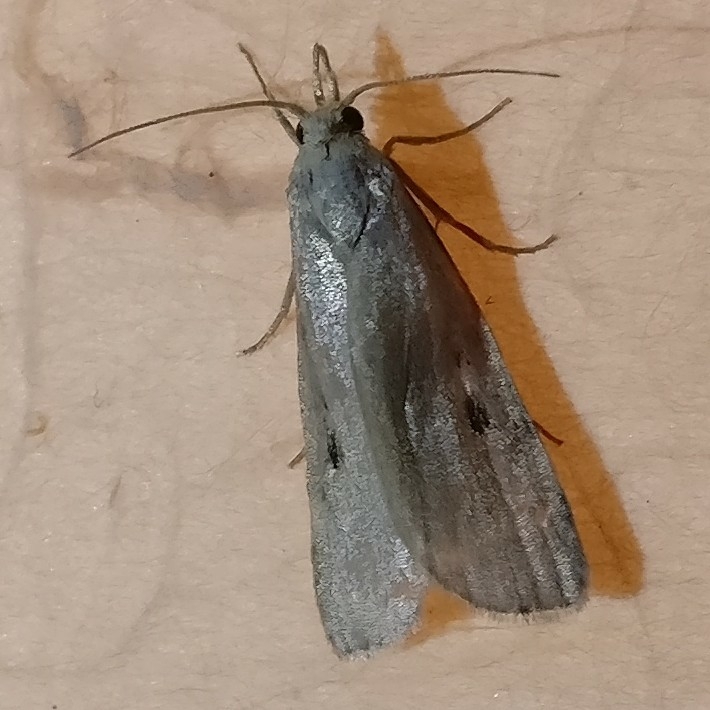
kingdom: Animalia
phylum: Arthropoda
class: Insecta
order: Lepidoptera
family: Pyralidae
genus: Aphomia
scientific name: Aphomia sociella
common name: Bee moth
